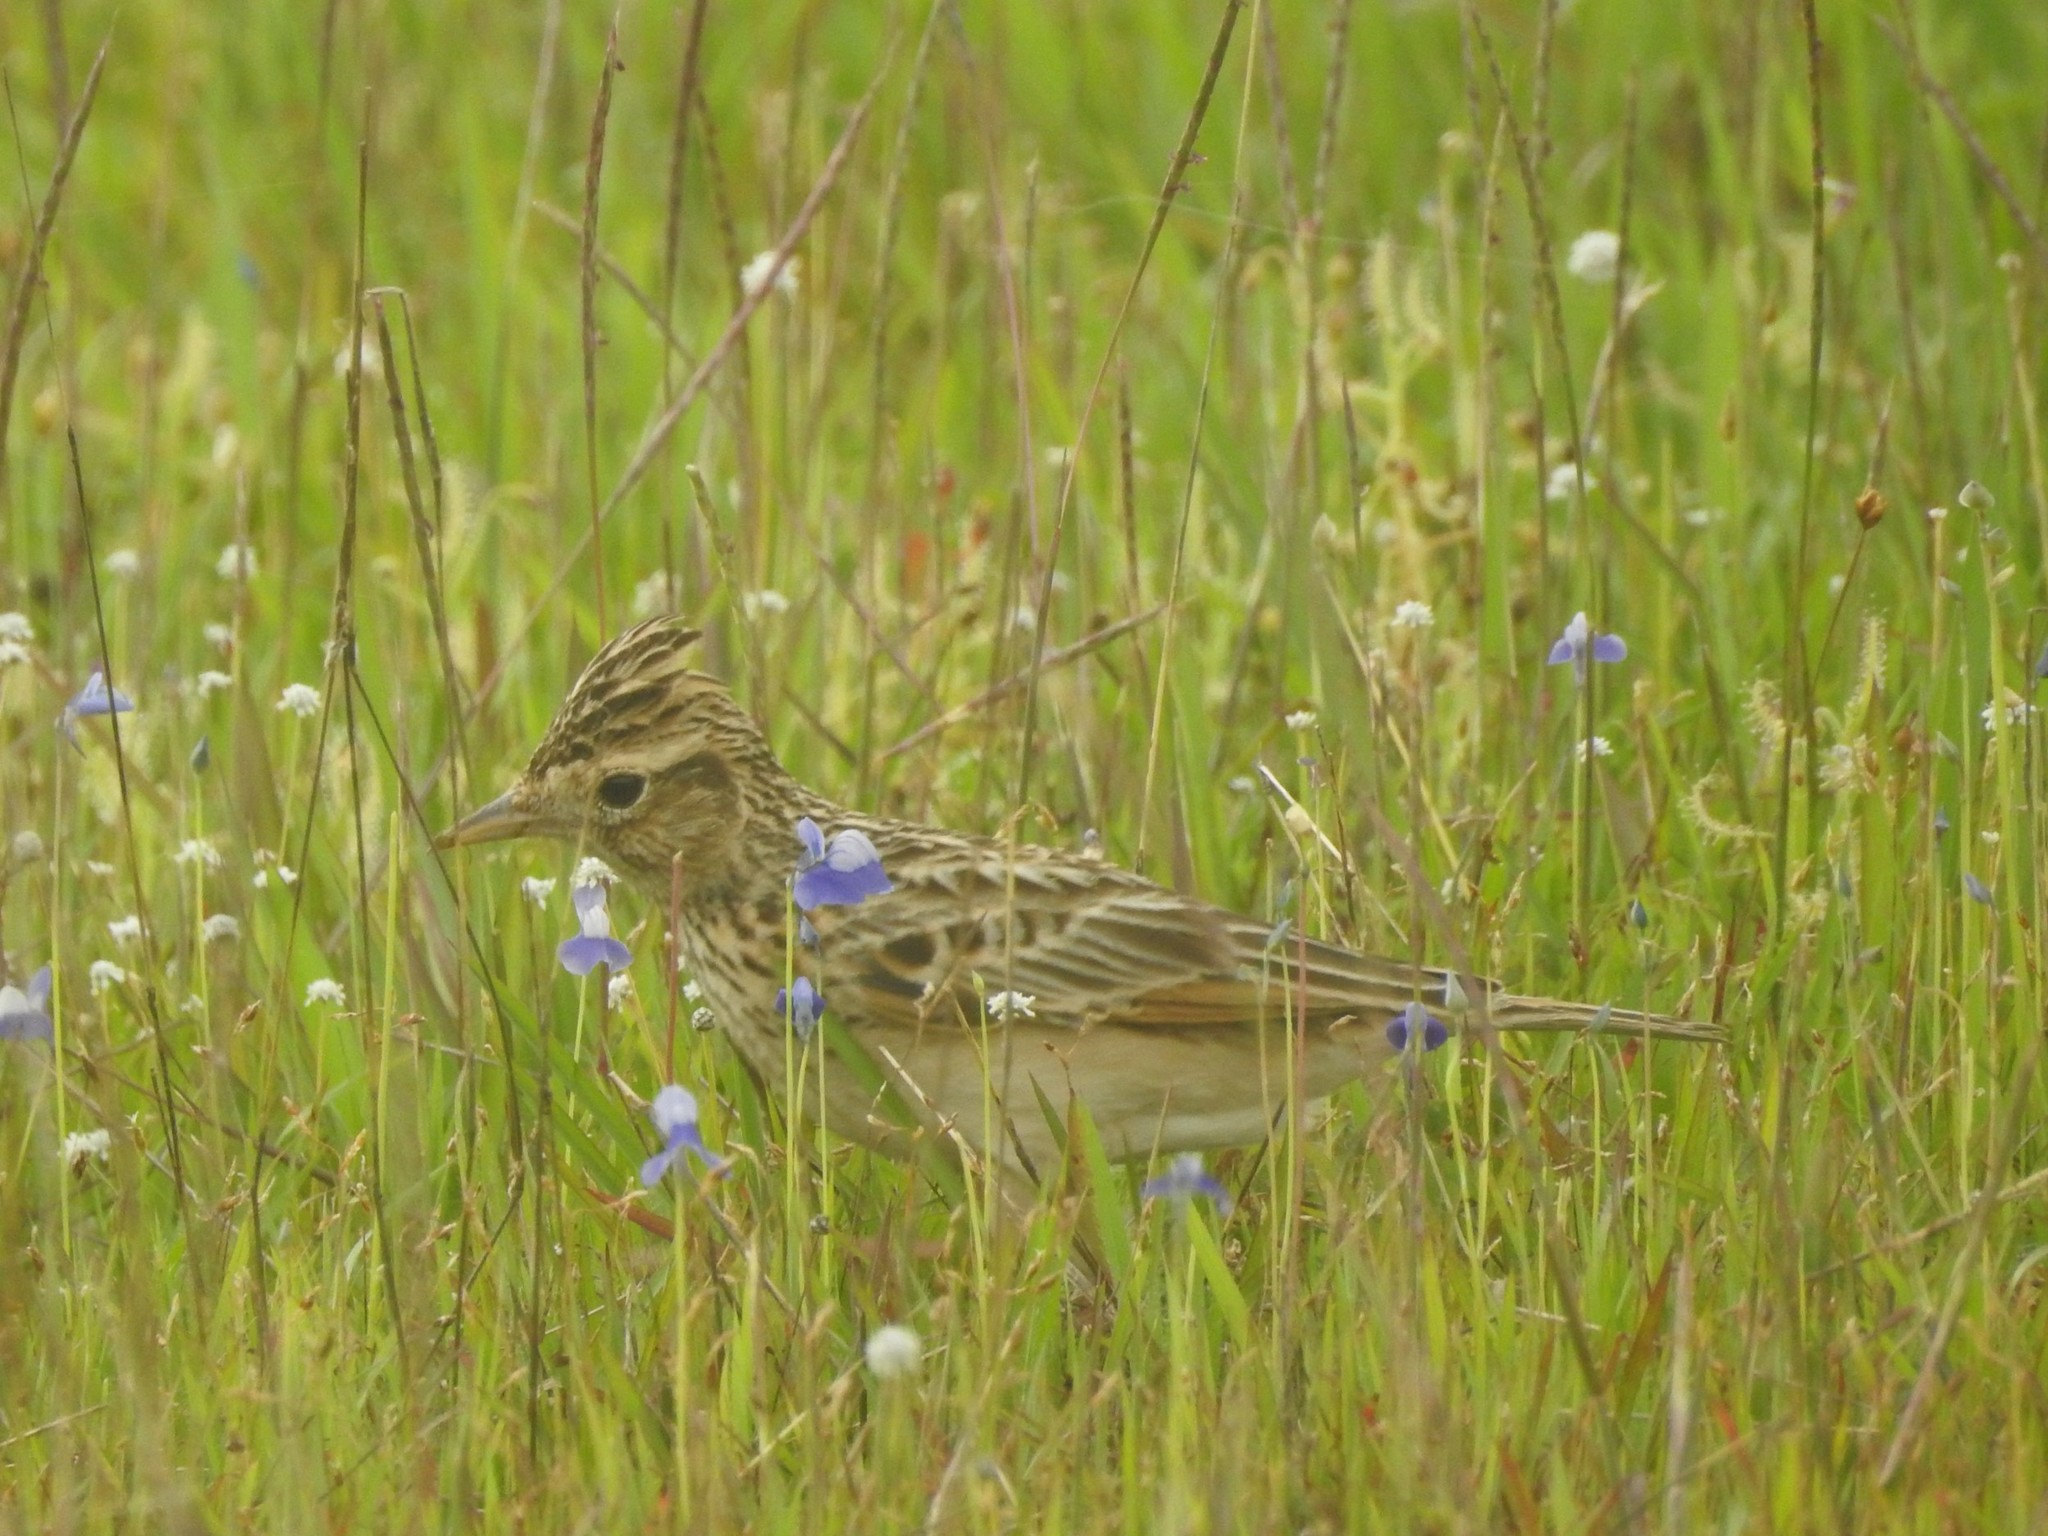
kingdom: Animalia
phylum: Chordata
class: Aves
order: Passeriformes
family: Alaudidae
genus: Alauda
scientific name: Alauda gulgula
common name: Oriental skylark
